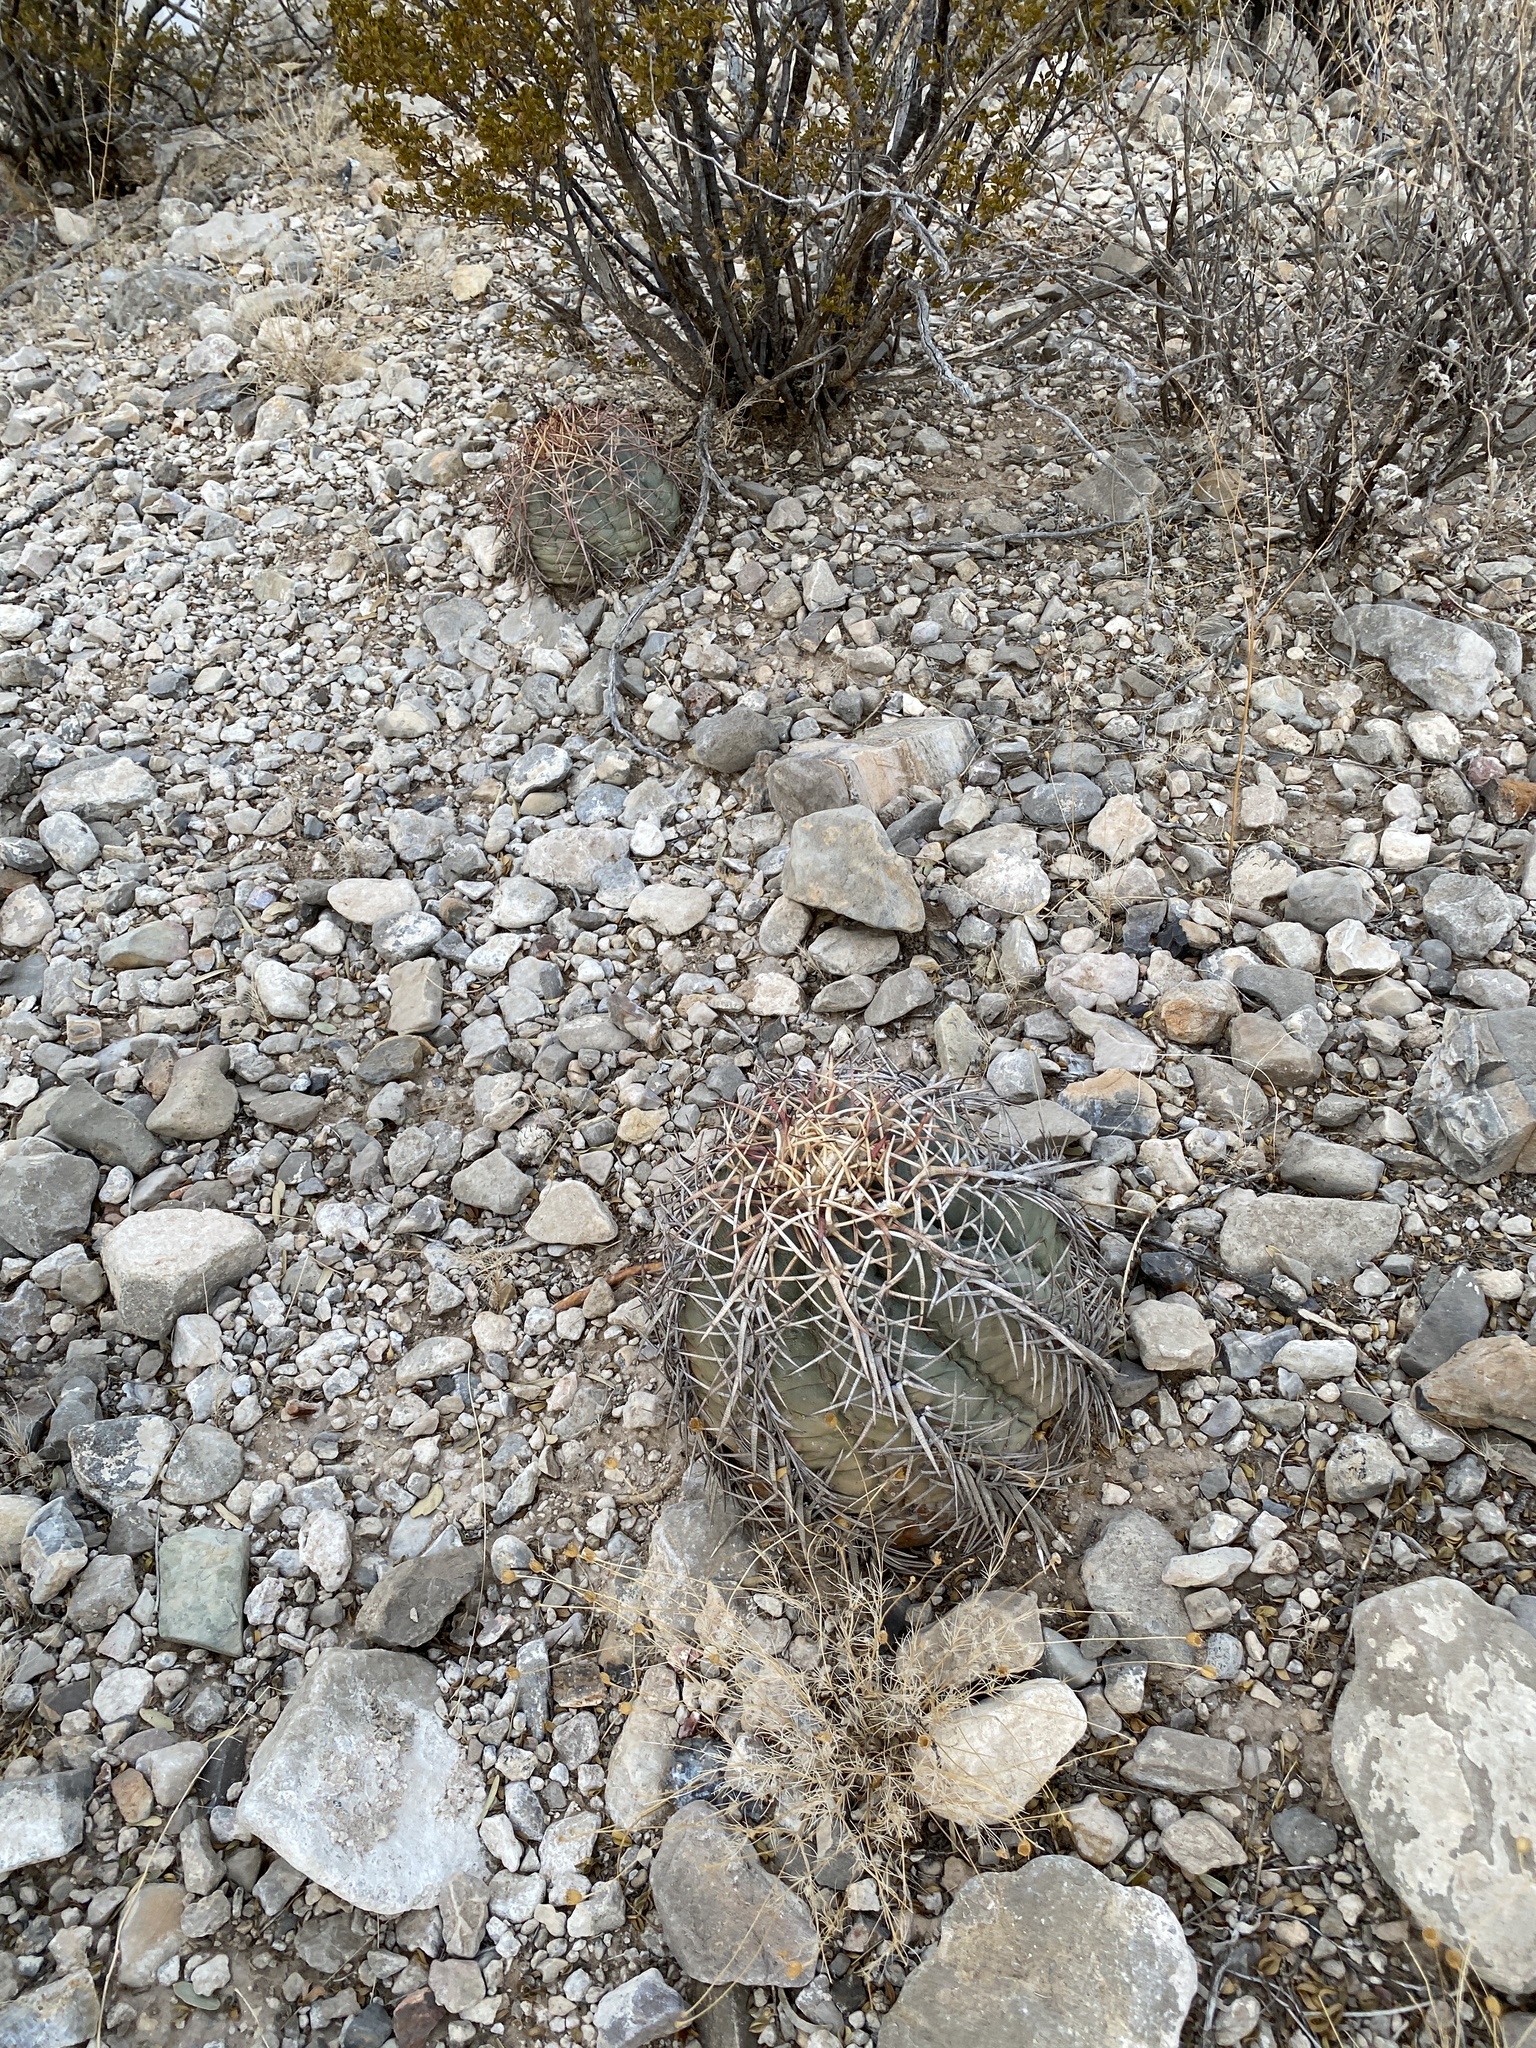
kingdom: Plantae
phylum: Tracheophyta
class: Magnoliopsida
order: Caryophyllales
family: Cactaceae
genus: Echinocactus
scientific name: Echinocactus horizonthalonius
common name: Devilshead
